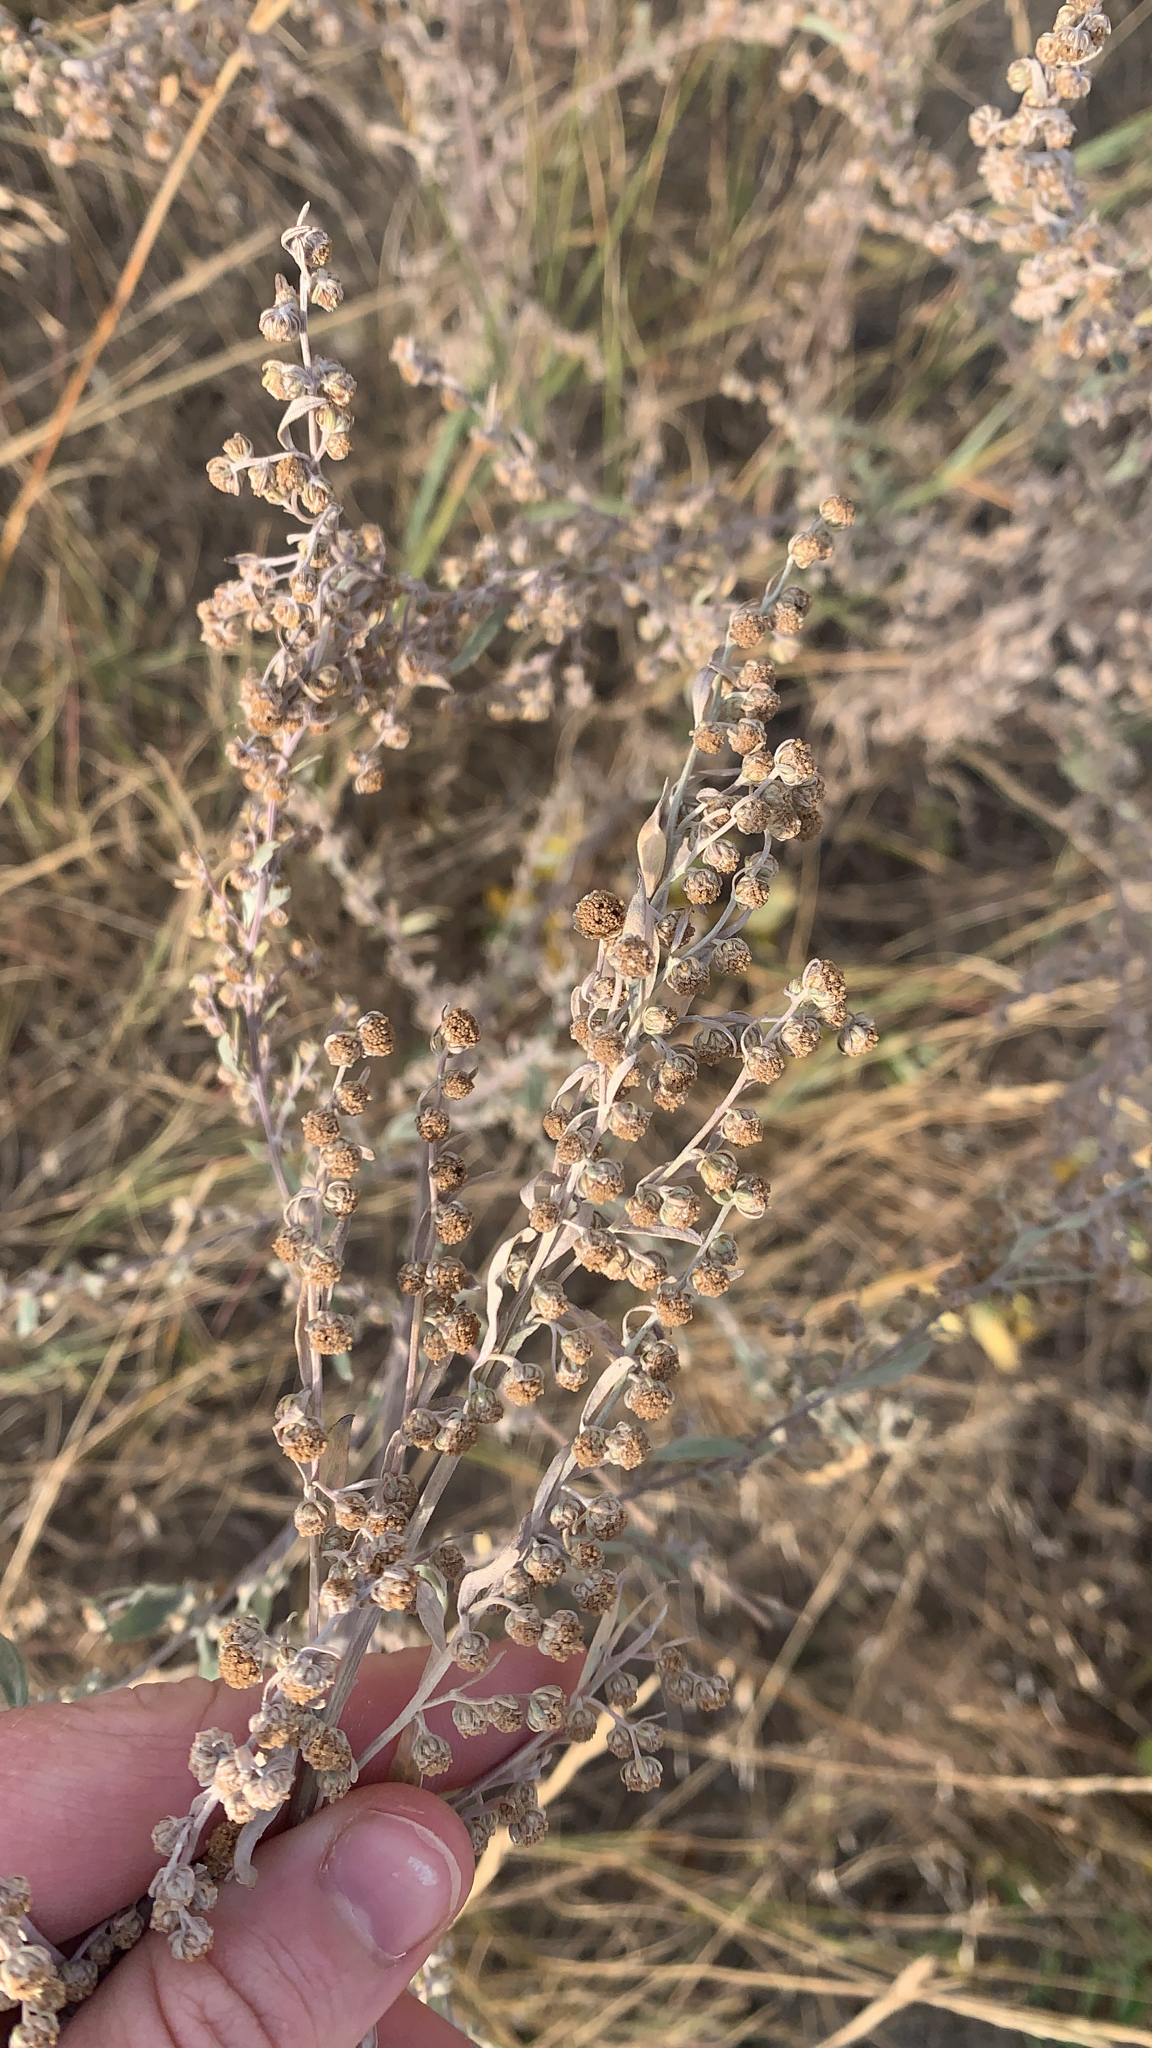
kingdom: Plantae
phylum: Tracheophyta
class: Magnoliopsida
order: Asterales
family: Asteraceae
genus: Artemisia
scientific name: Artemisia frigida
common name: Prairie sagewort
